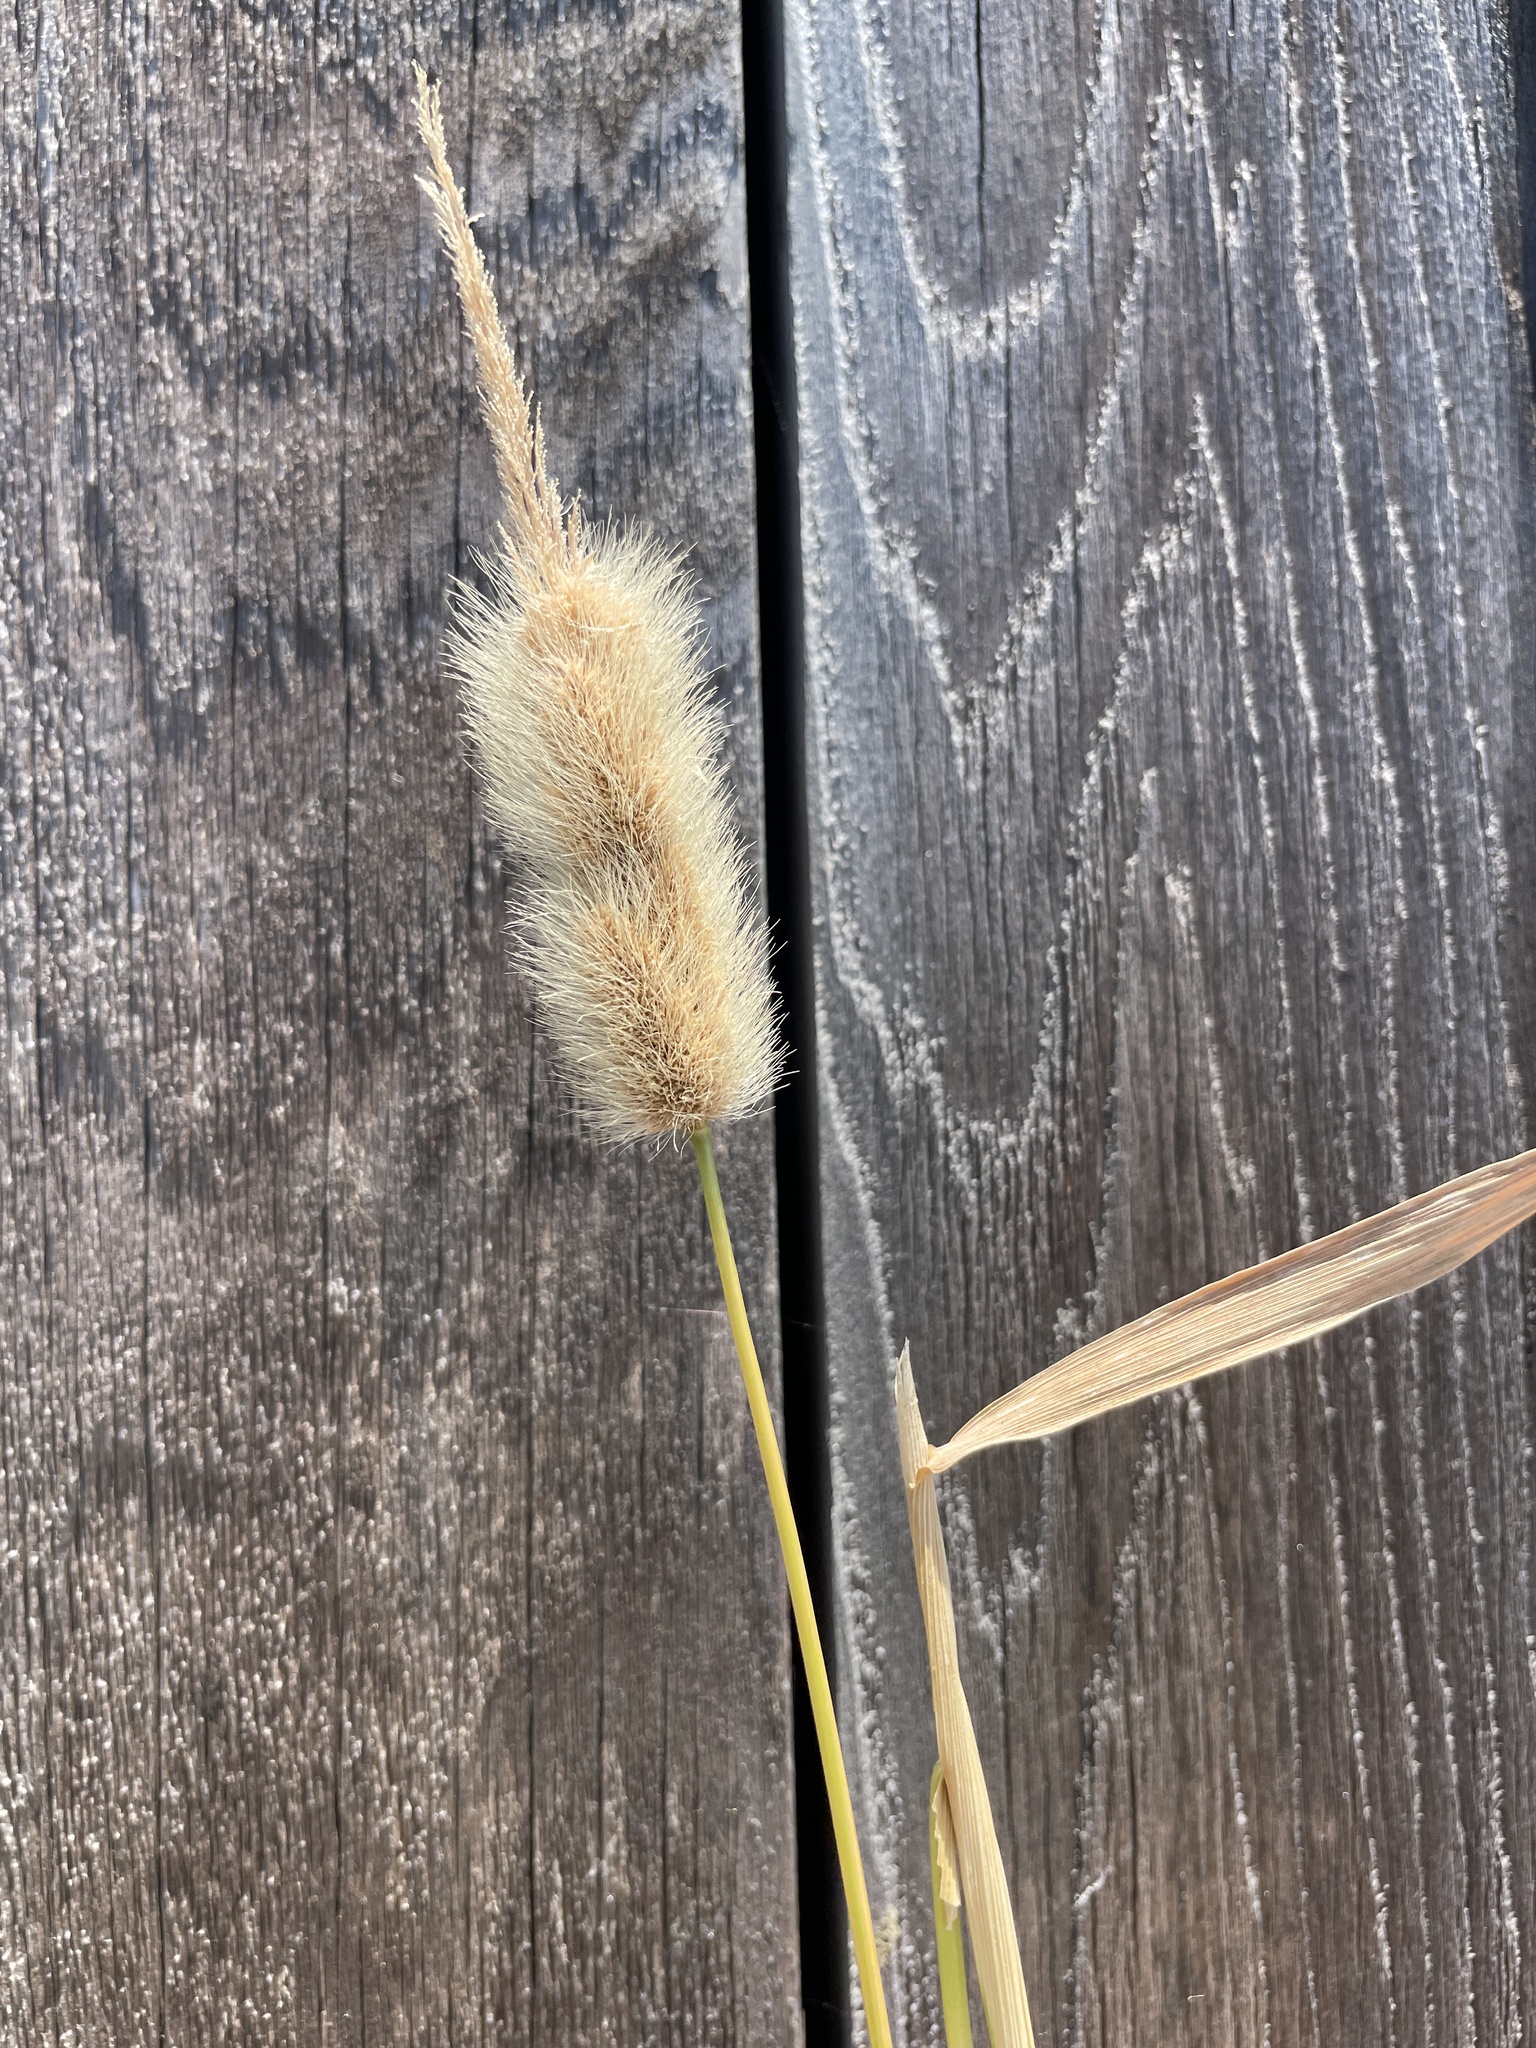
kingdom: Plantae
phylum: Tracheophyta
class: Liliopsida
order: Poales
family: Poaceae
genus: Polypogon
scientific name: Polypogon monspeliensis
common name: Annual rabbitsfoot grass
